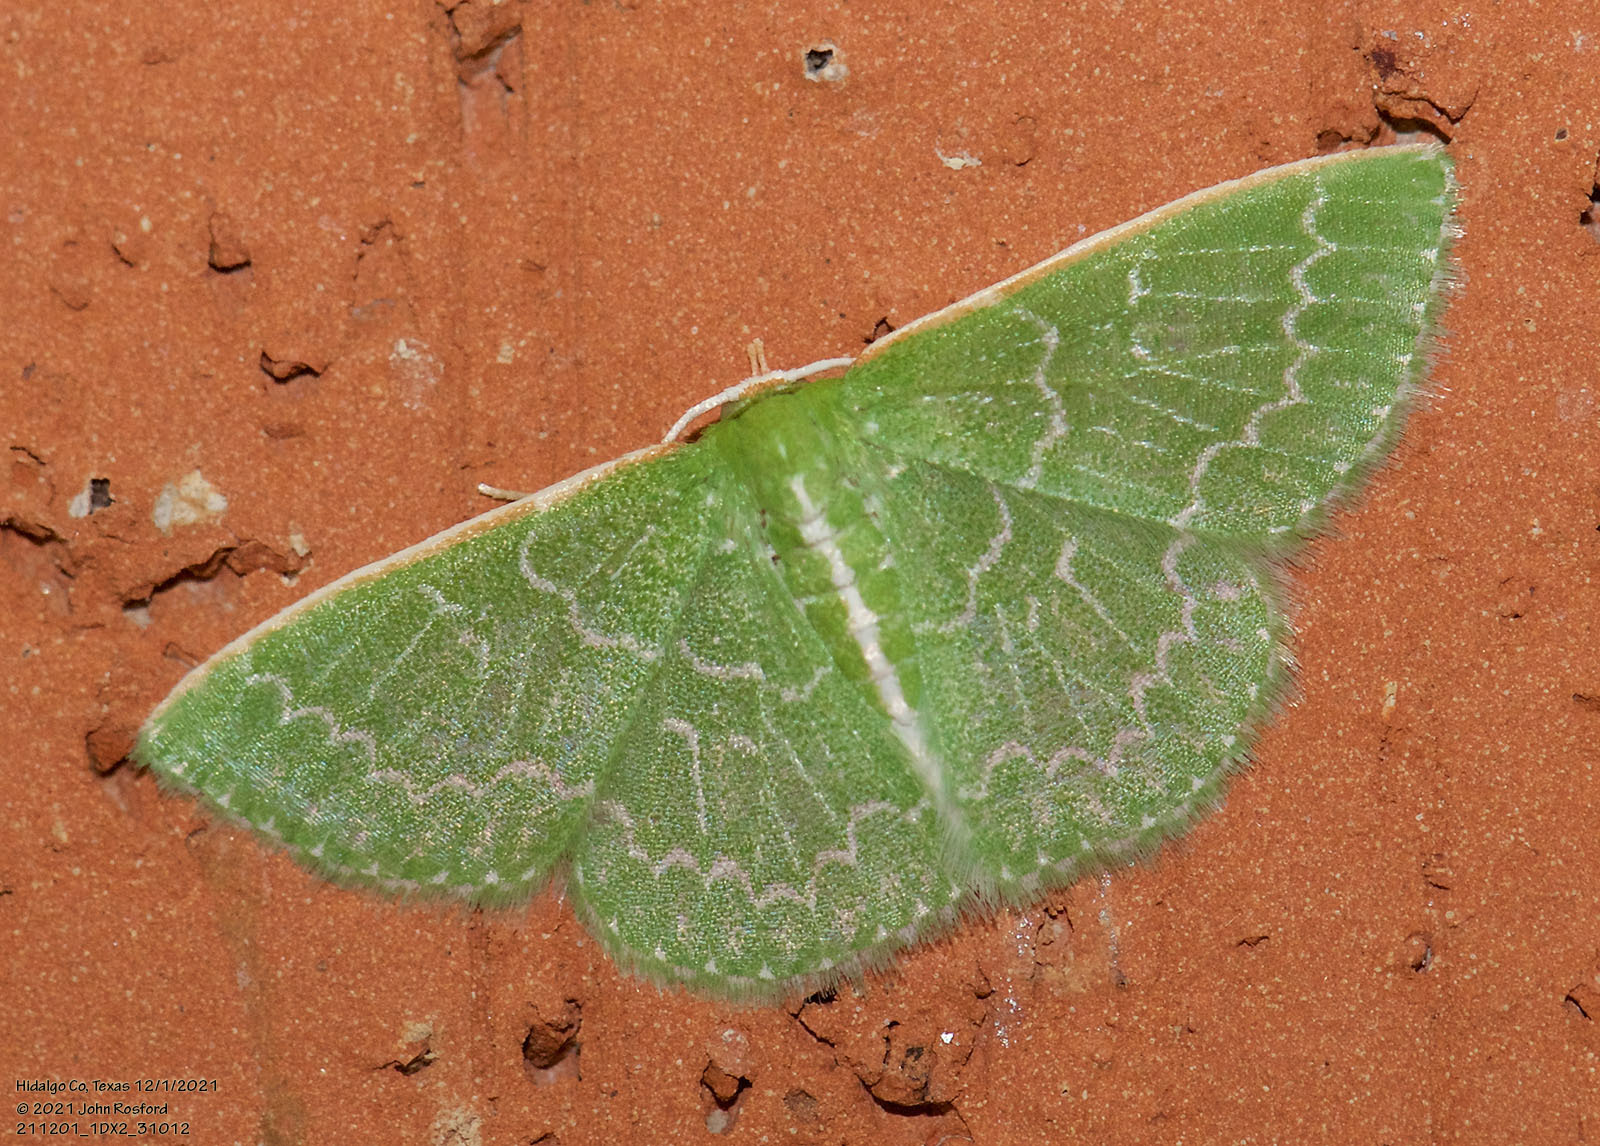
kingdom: Animalia
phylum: Arthropoda
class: Insecta
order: Lepidoptera
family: Geometridae
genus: Synchlora
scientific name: Synchlora frondaria
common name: Southern emerald
